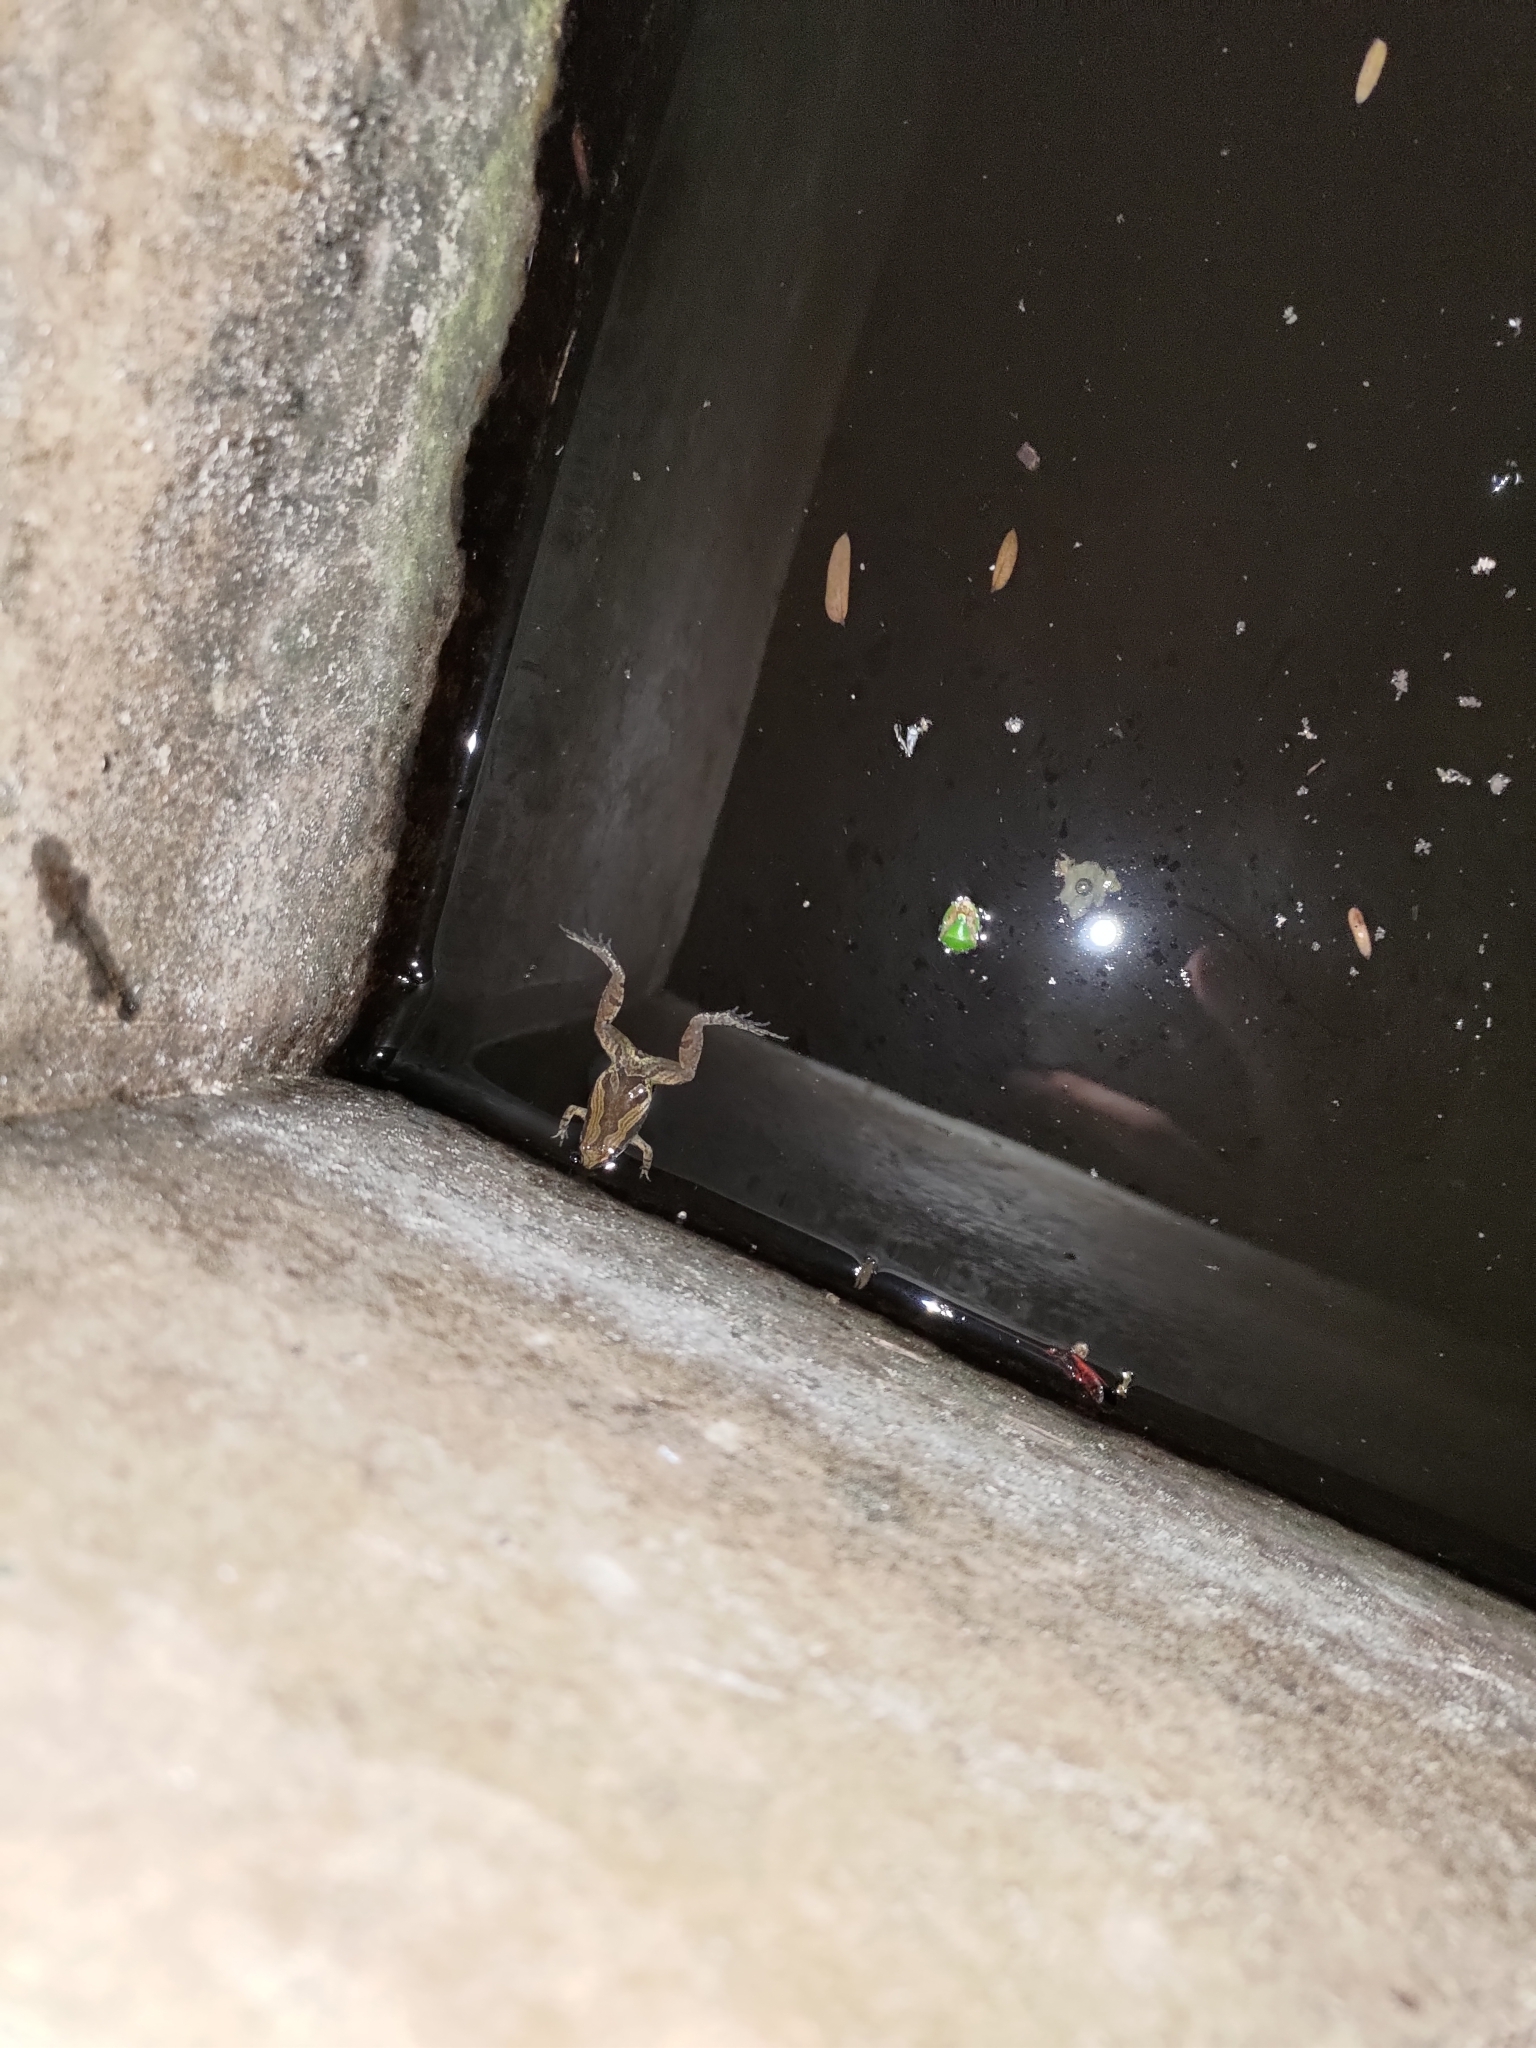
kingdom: Animalia
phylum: Chordata
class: Amphibia
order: Anura
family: Microhylidae
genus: Microhyla
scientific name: Microhyla fissipes
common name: Ornate narrow-mouthed frog
